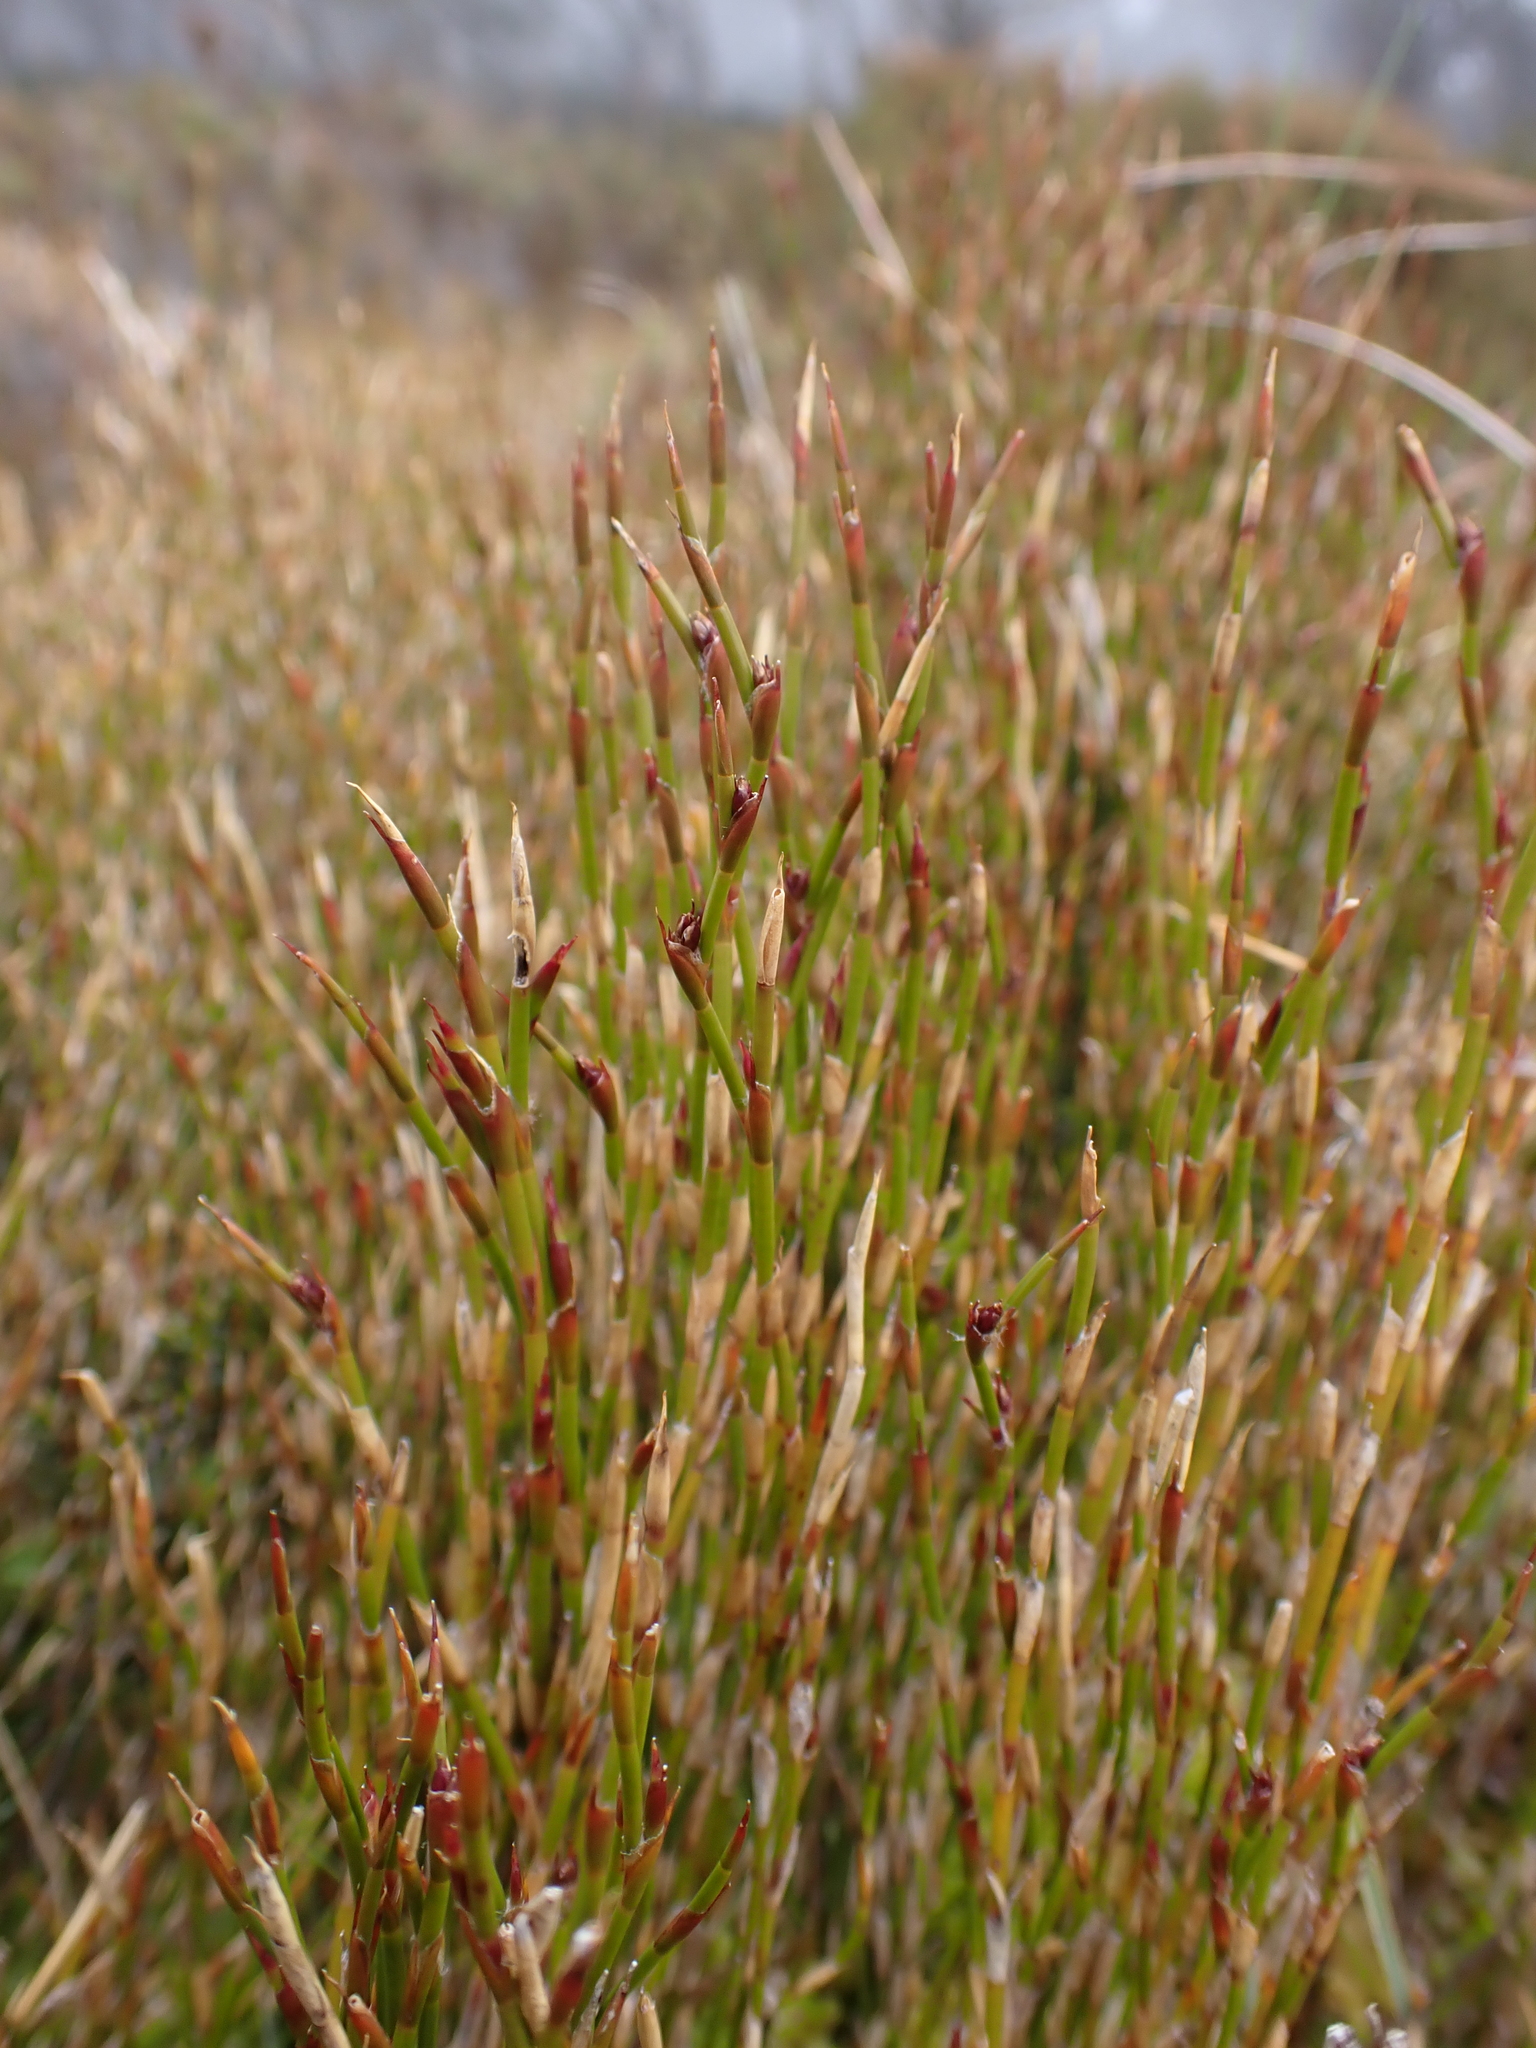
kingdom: Plantae
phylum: Tracheophyta
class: Liliopsida
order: Poales
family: Restionaceae
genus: Empodisma
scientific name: Empodisma minus
